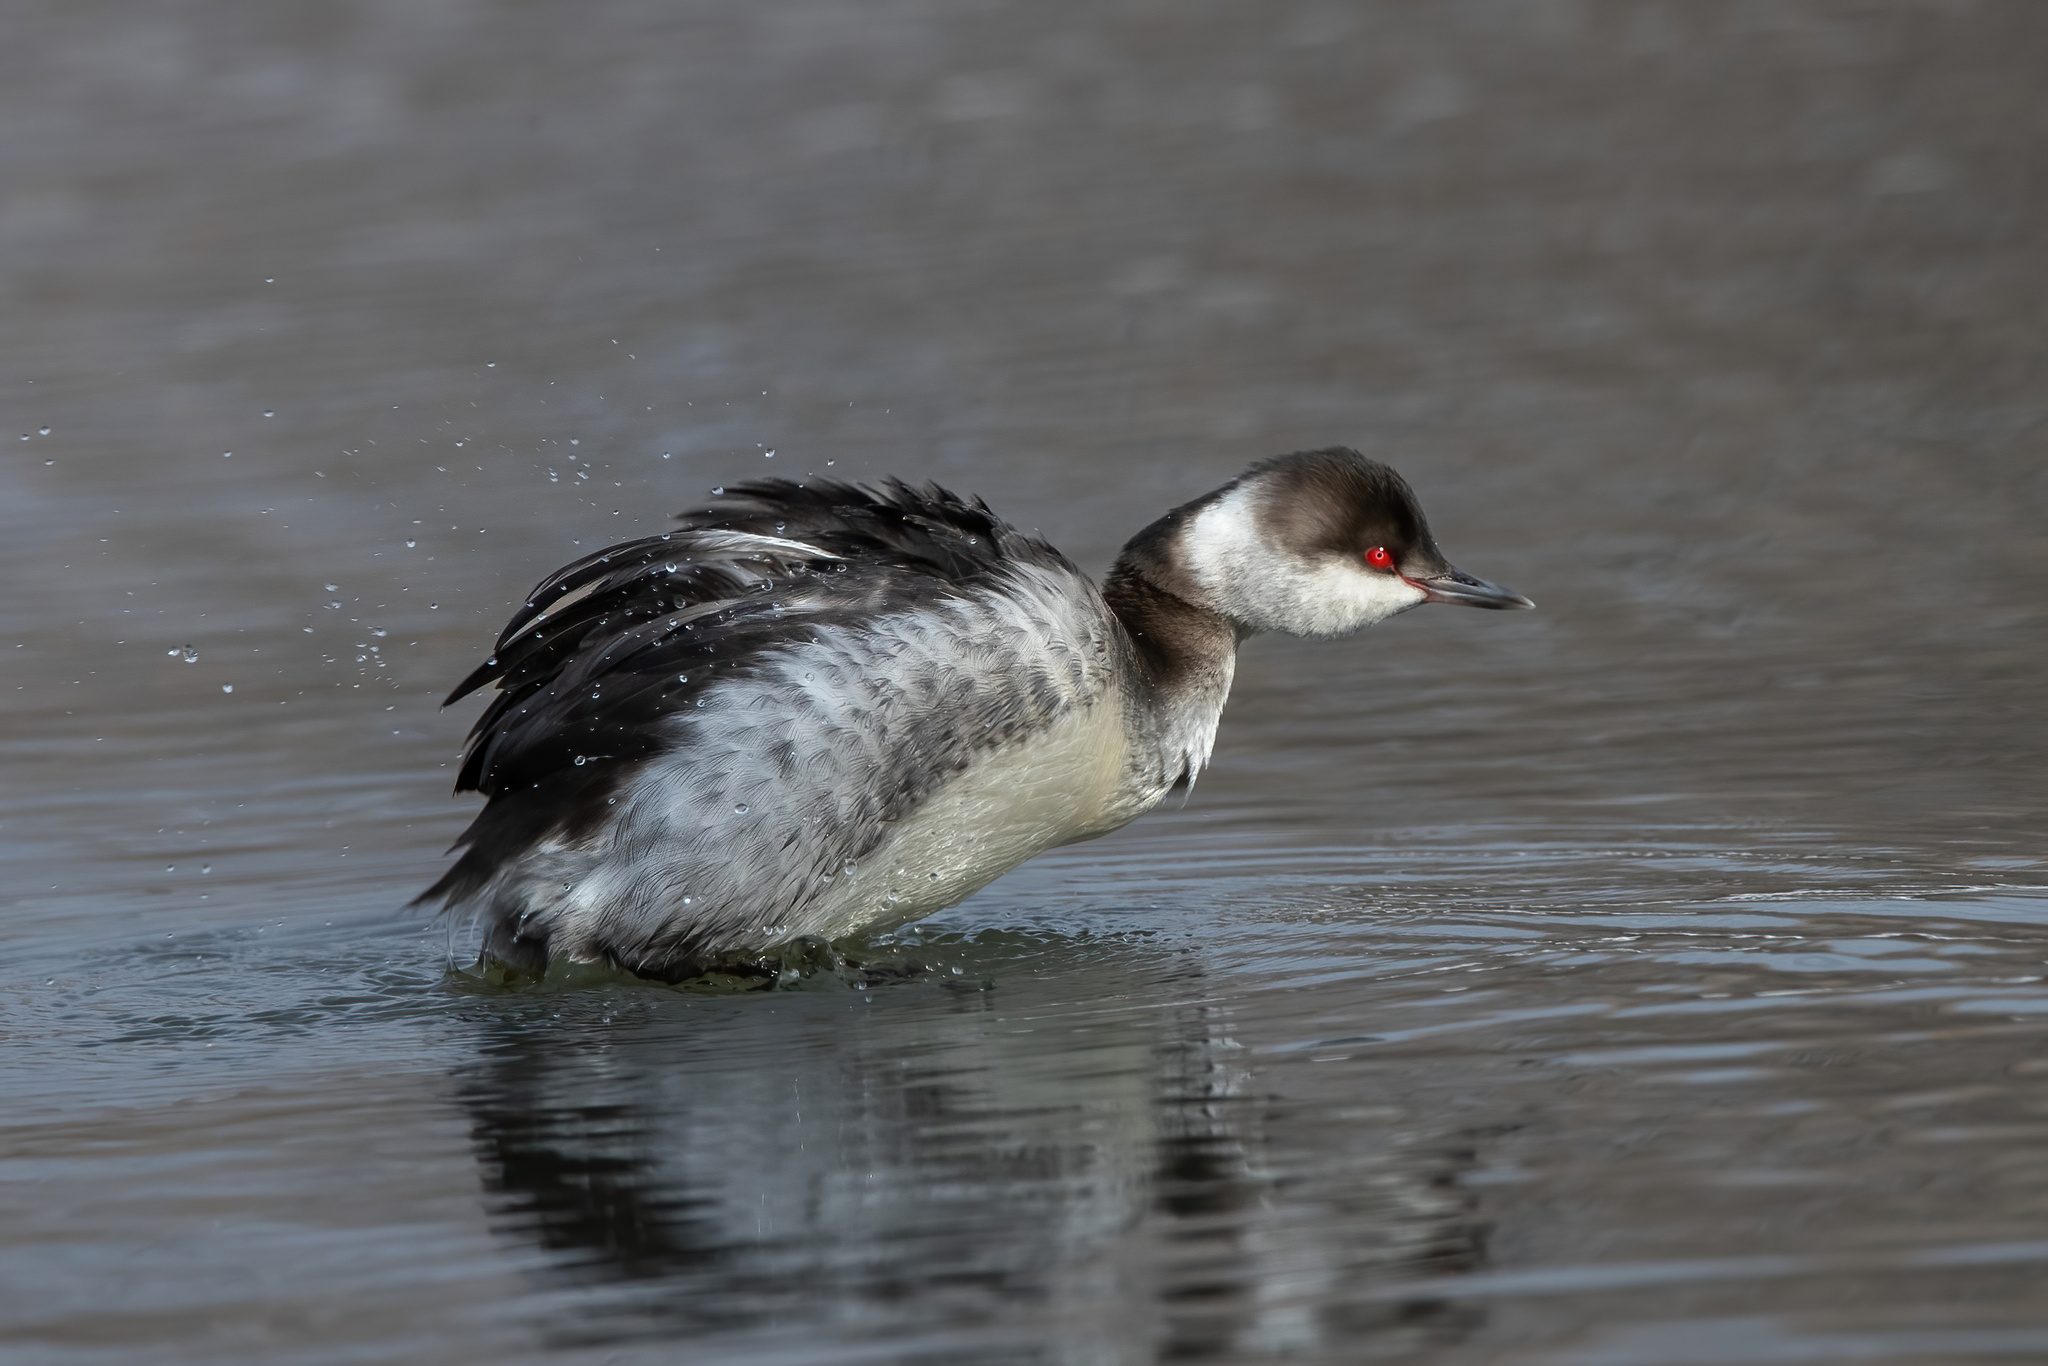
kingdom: Animalia
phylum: Chordata
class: Aves
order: Podicipediformes
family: Podicipedidae
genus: Podiceps
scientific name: Podiceps auritus
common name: Horned grebe
